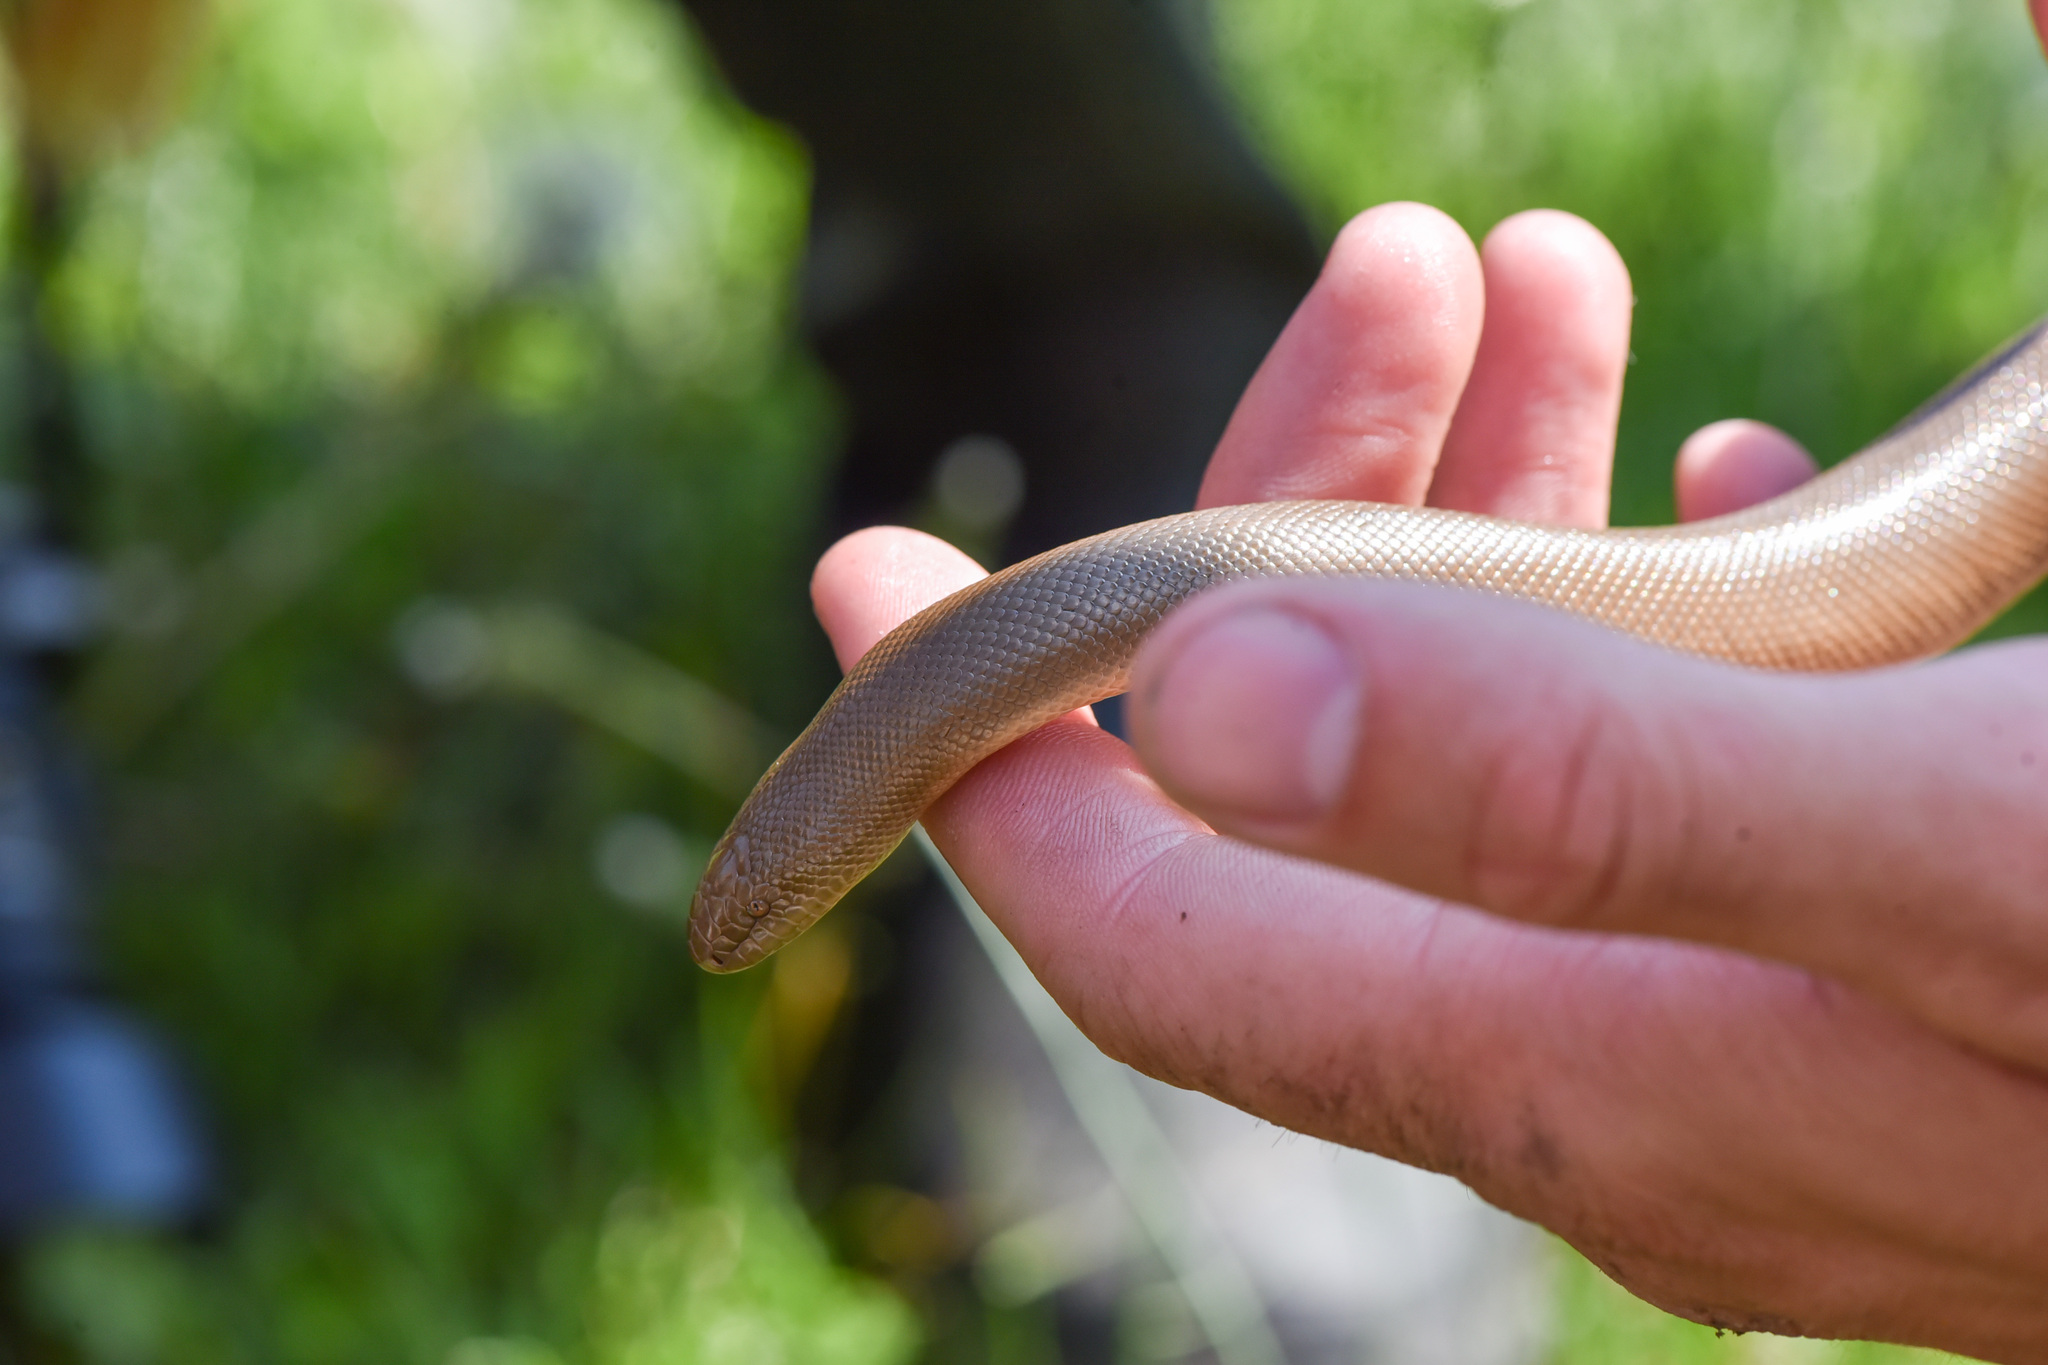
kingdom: Animalia
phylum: Chordata
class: Squamata
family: Boidae
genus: Charina
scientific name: Charina bottae
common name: Northern rubber boa
